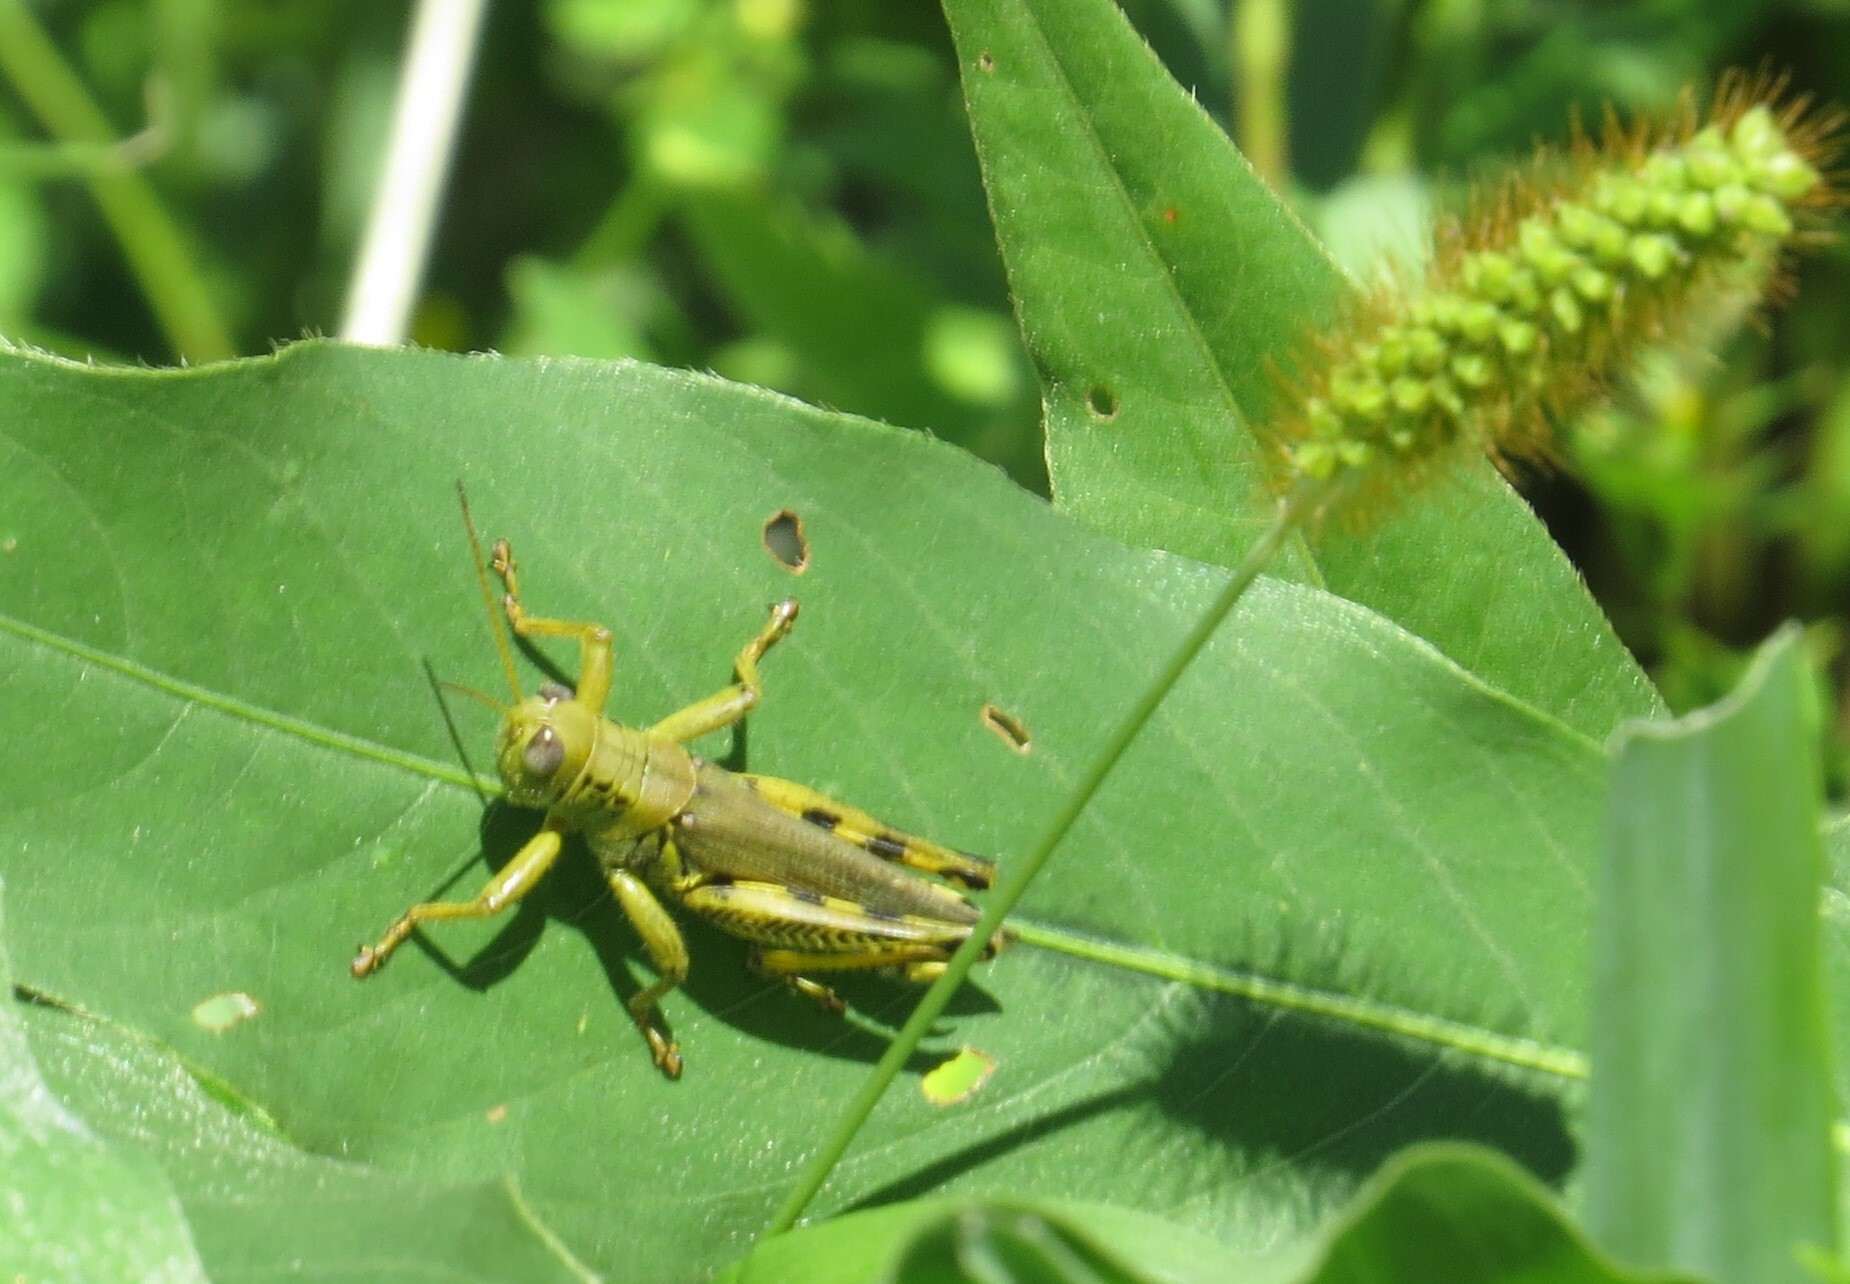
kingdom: Animalia
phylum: Arthropoda
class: Insecta
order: Orthoptera
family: Acrididae
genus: Melanoplus
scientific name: Melanoplus differentialis
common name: Differential grasshopper
